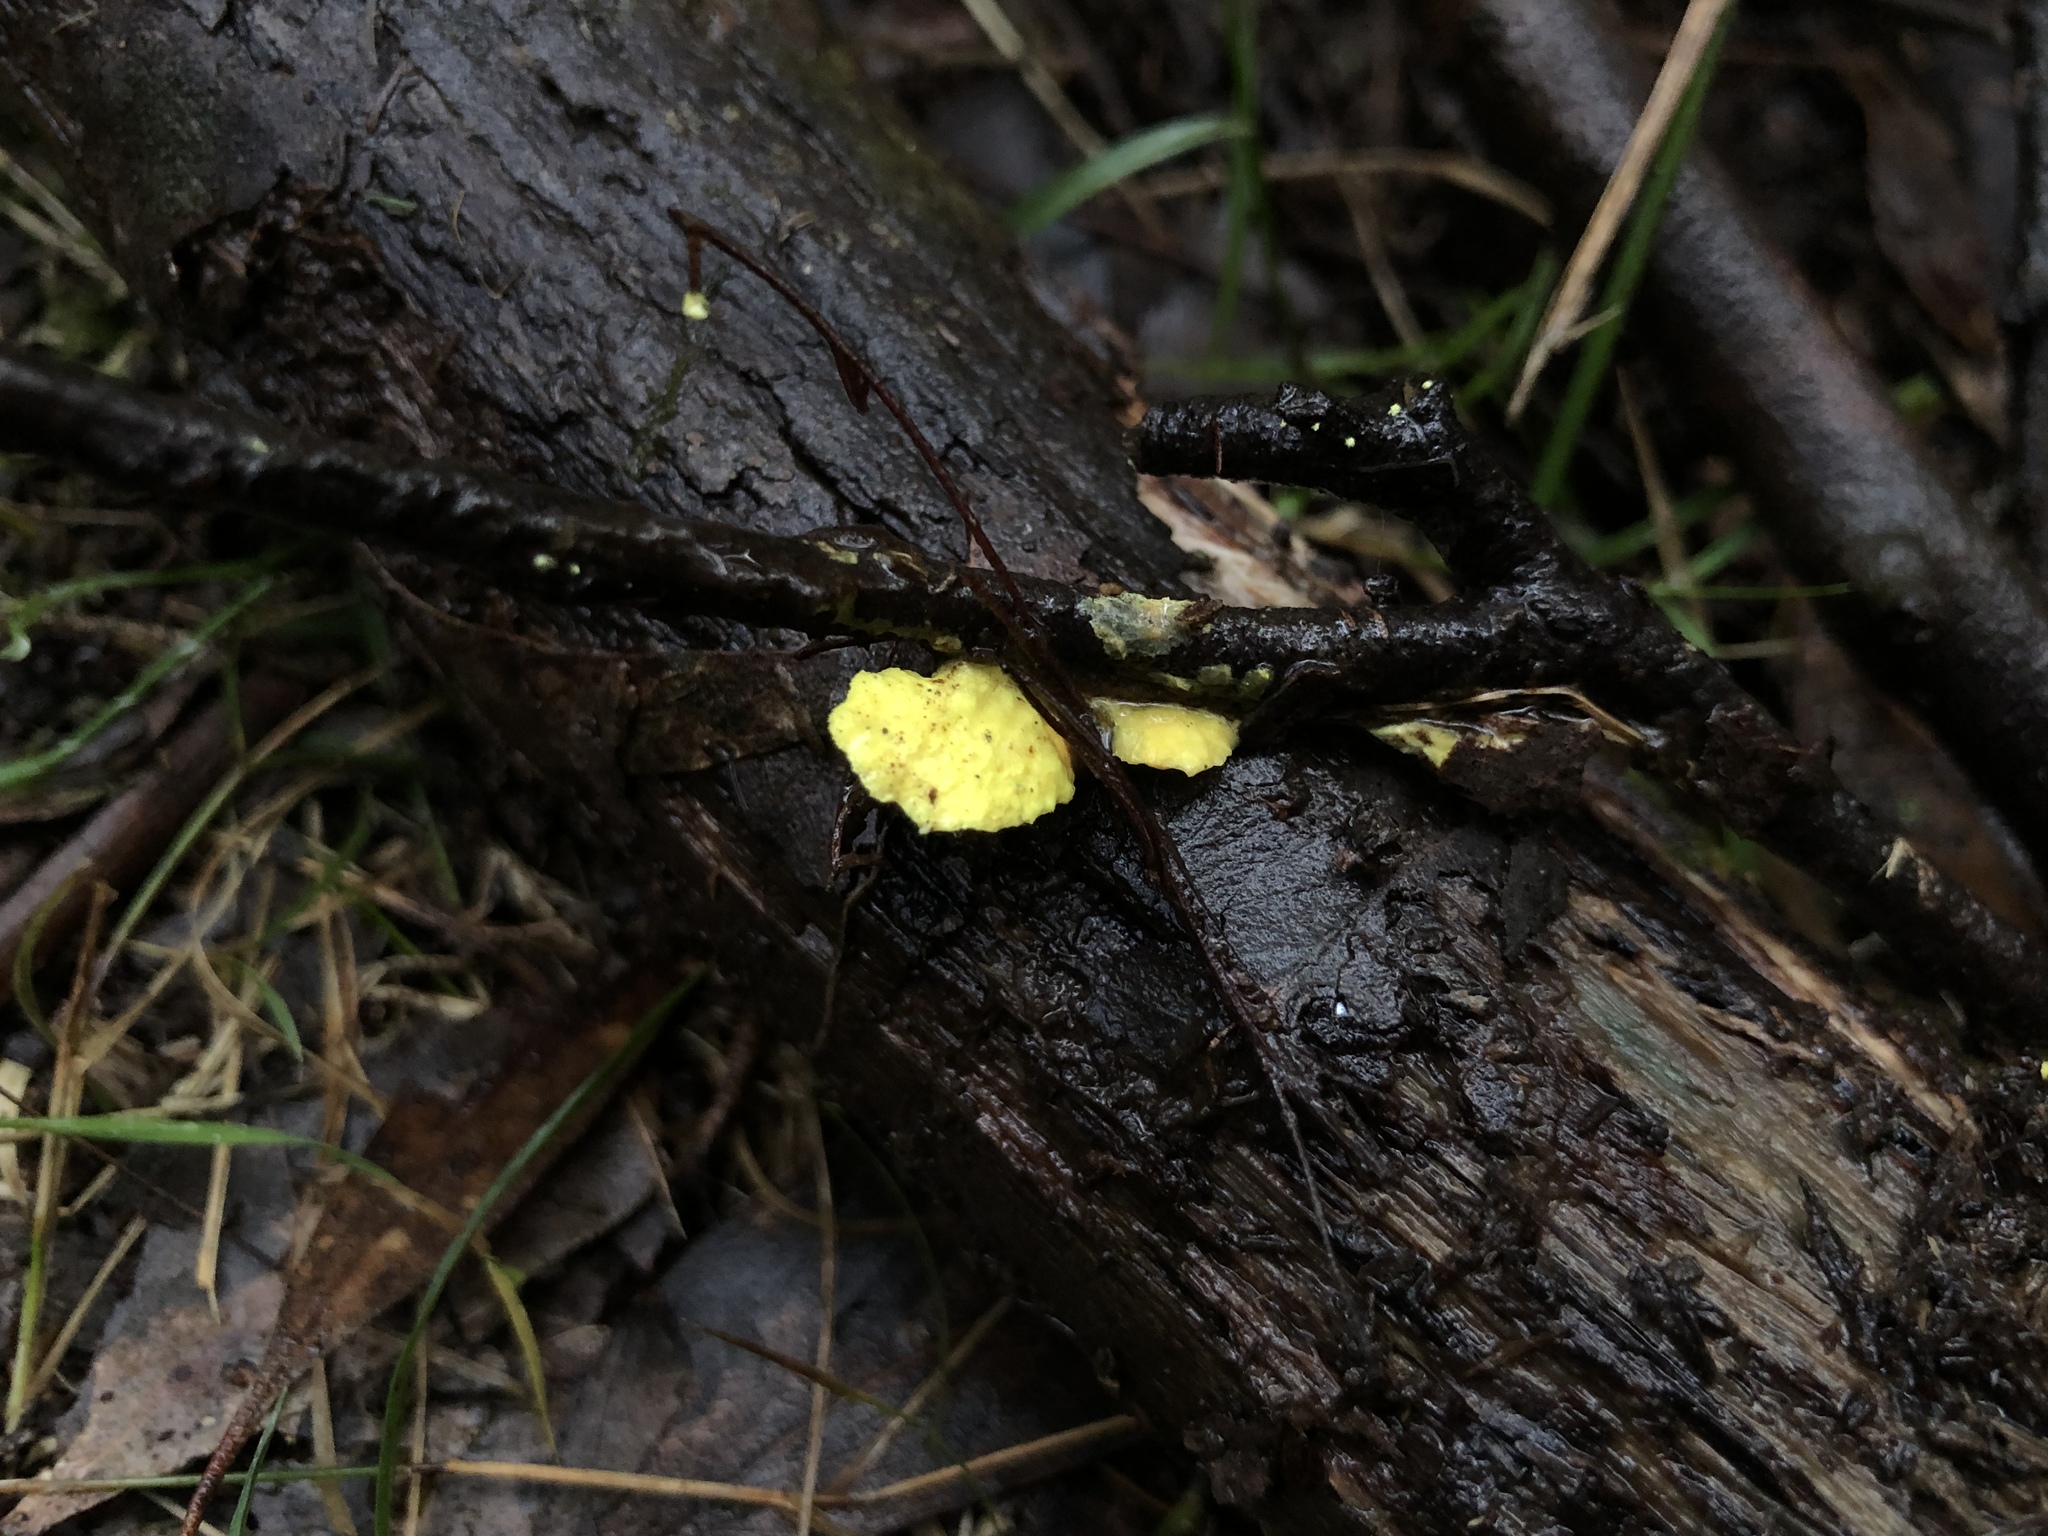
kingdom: Fungi
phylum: Basidiomycota
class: Agaricomycetes
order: Polyporales
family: Steccherinaceae
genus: Austeria
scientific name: Austeria citrea
